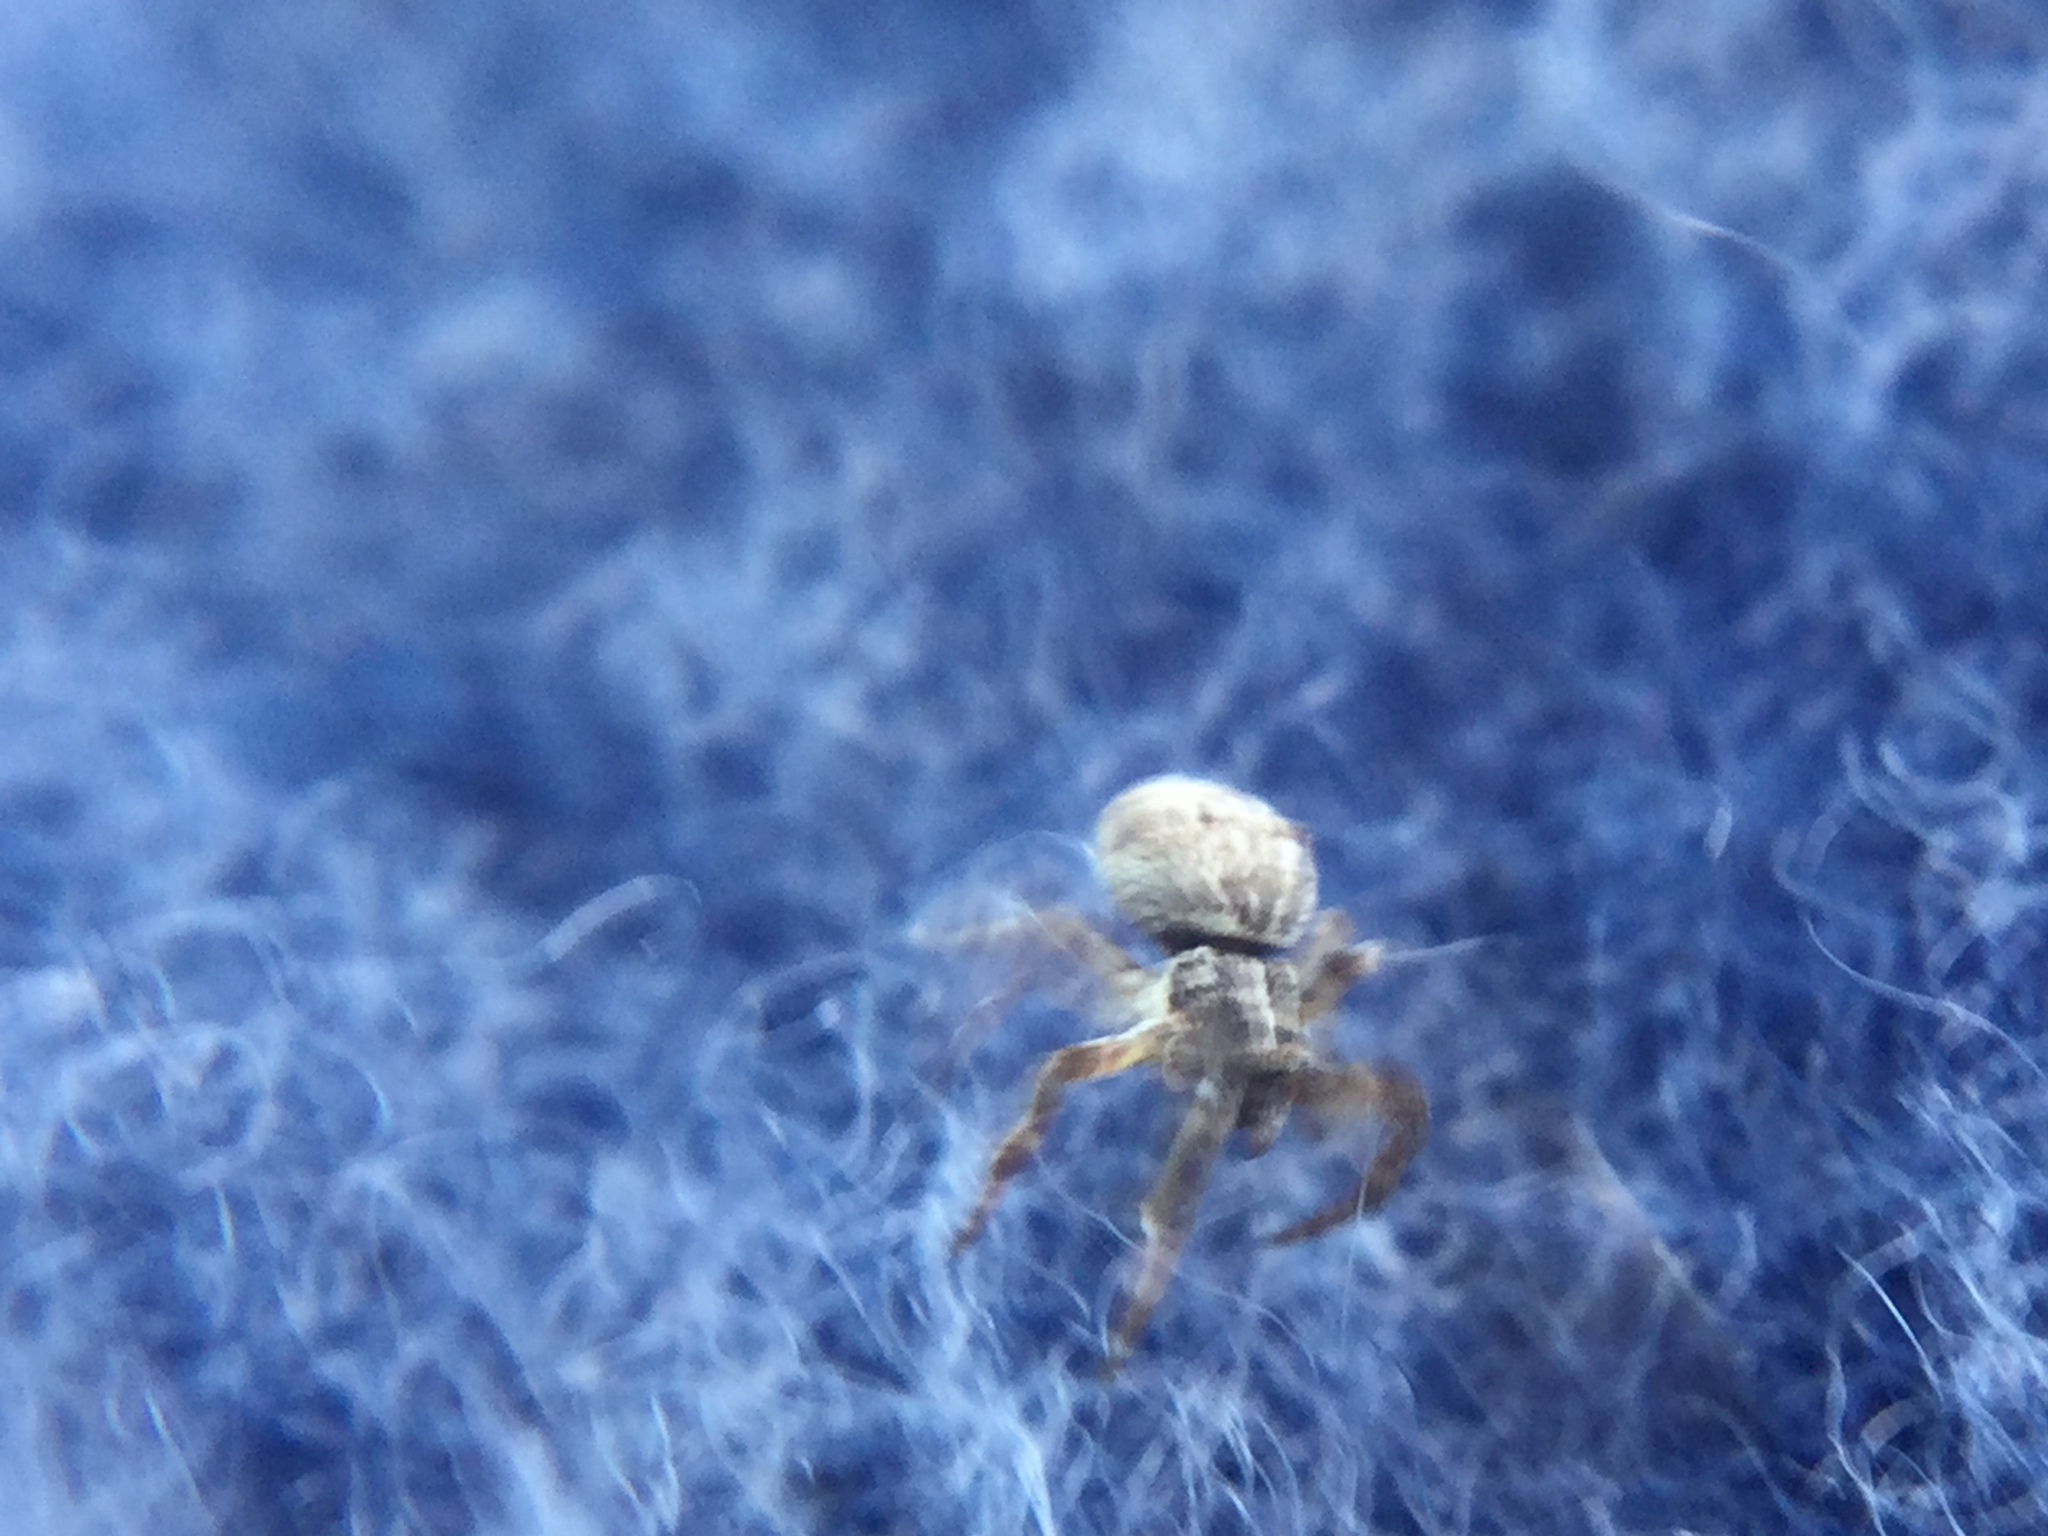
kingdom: Animalia
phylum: Arthropoda
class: Arachnida
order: Araneae
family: Uloboridae
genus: Uloborus
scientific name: Uloborus glomosus
